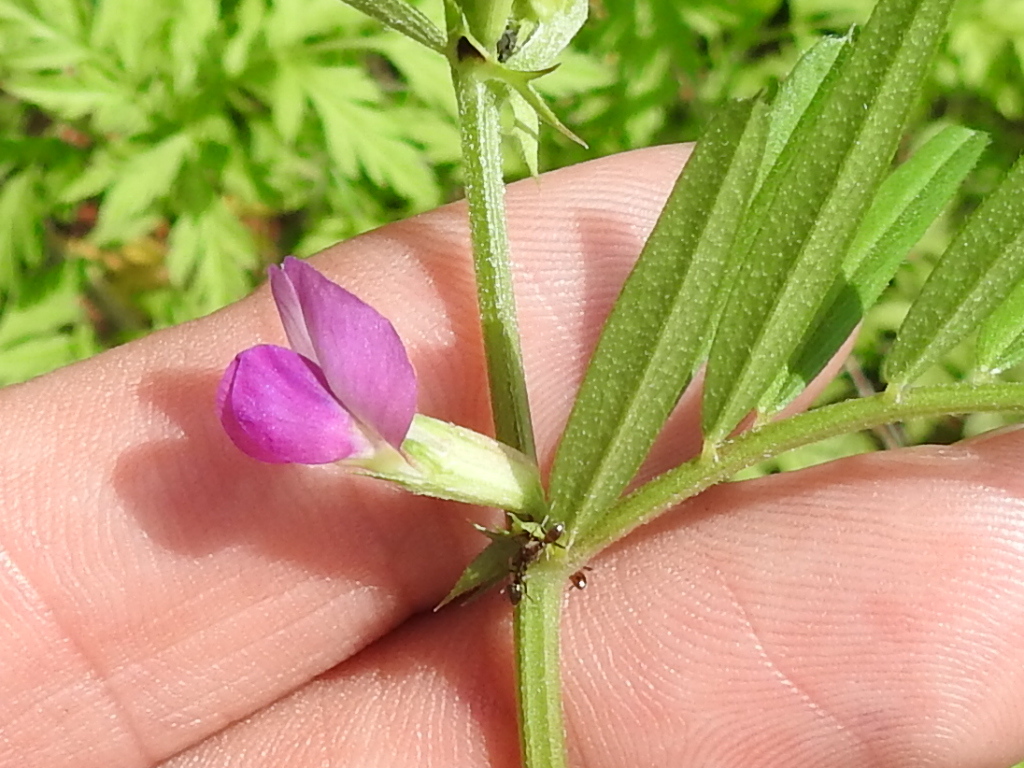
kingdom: Plantae
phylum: Tracheophyta
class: Magnoliopsida
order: Fabales
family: Fabaceae
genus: Vicia
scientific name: Vicia sativa
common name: Garden vetch
